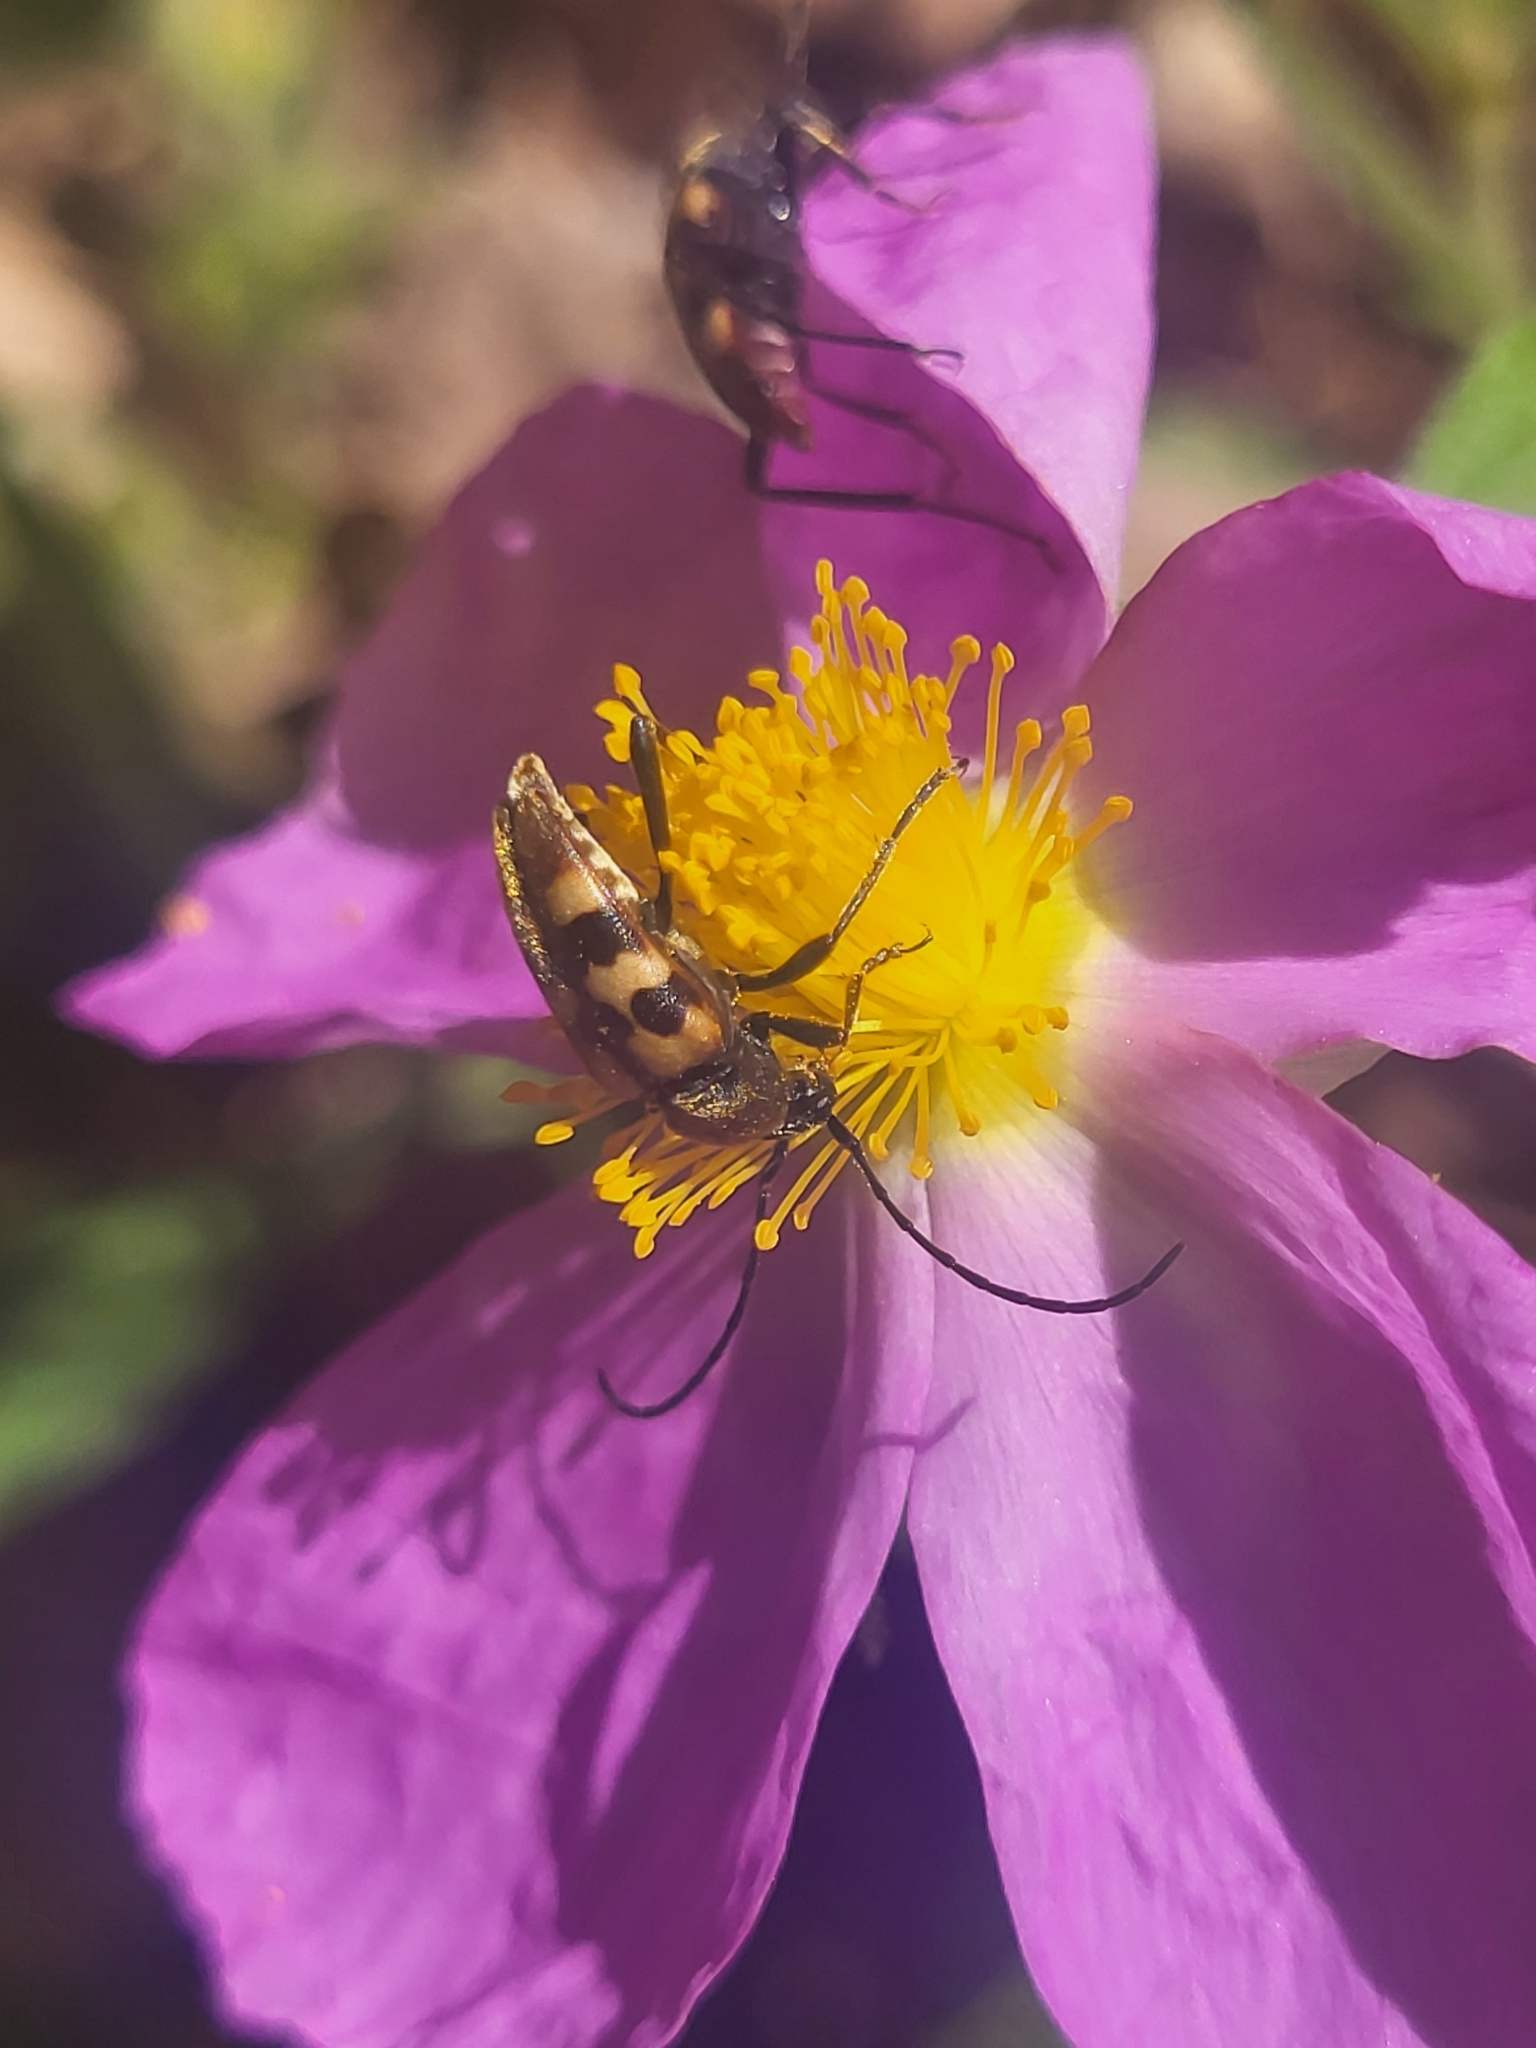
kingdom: Animalia
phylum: Arthropoda
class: Insecta
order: Coleoptera
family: Cerambycidae
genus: Pachytodes
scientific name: Pachytodes
